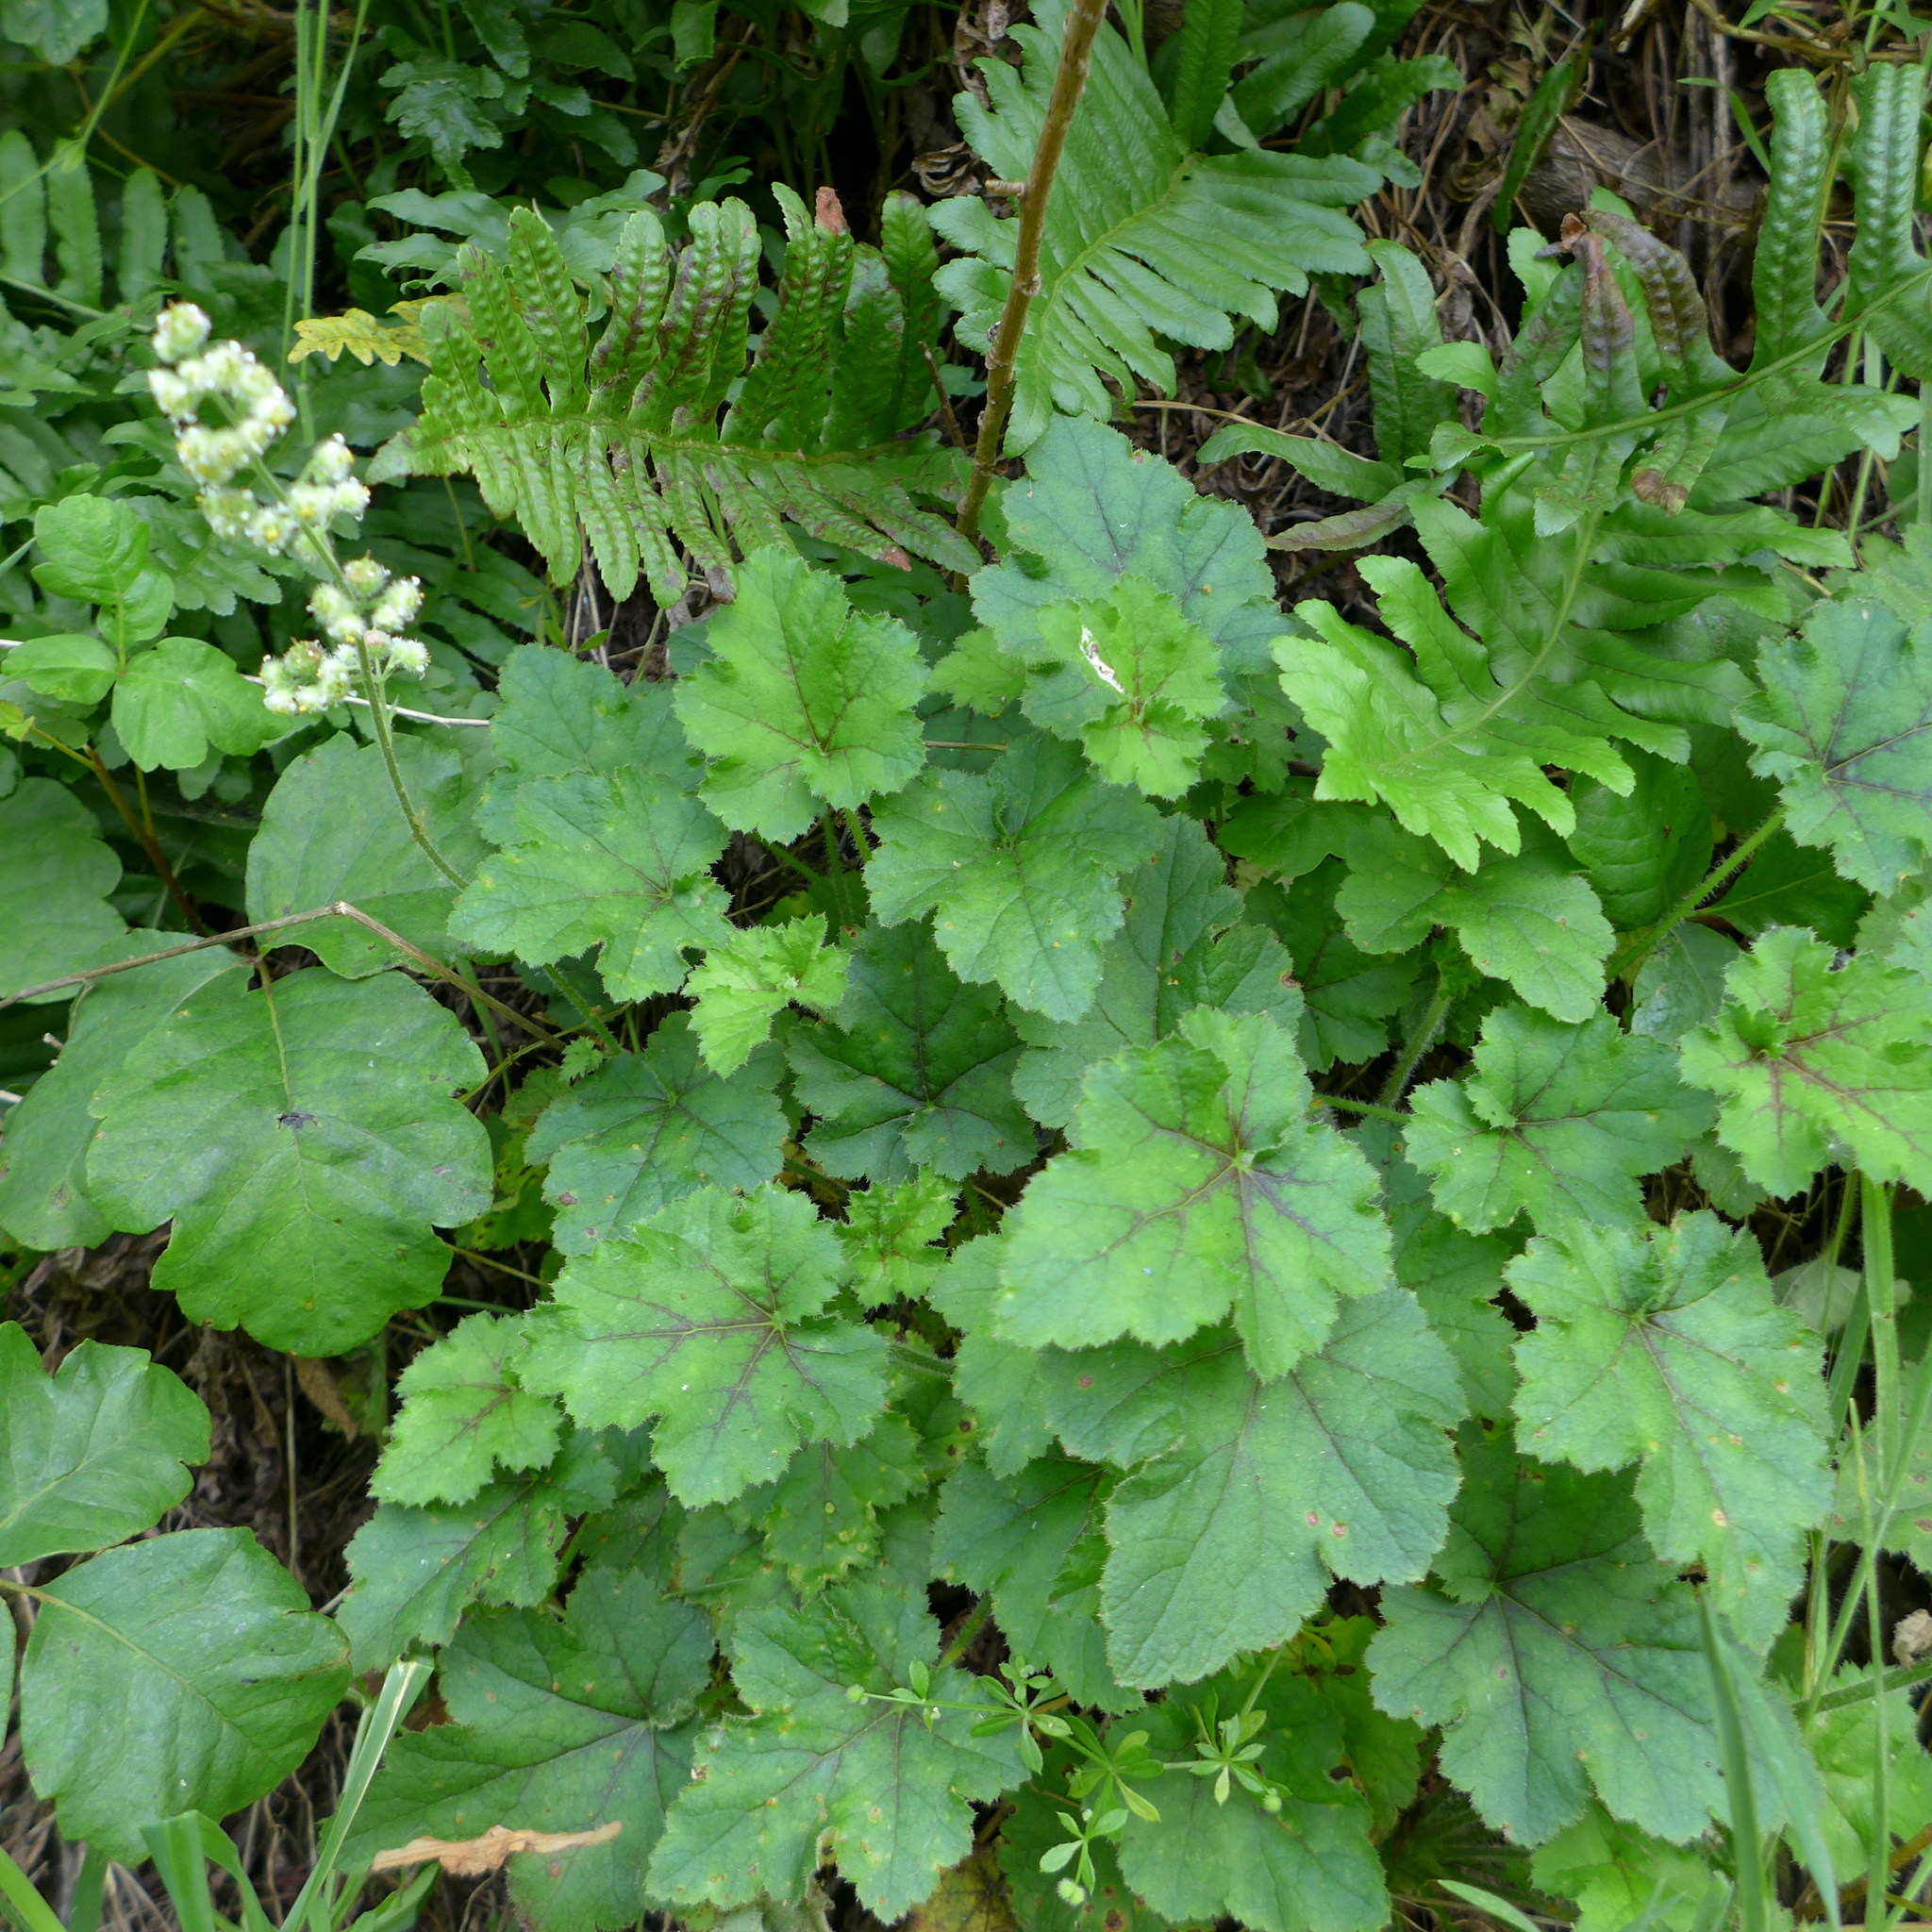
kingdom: Plantae
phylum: Tracheophyta
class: Magnoliopsida
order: Saxifragales
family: Saxifragaceae
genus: Heuchera
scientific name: Heuchera pilosissima
